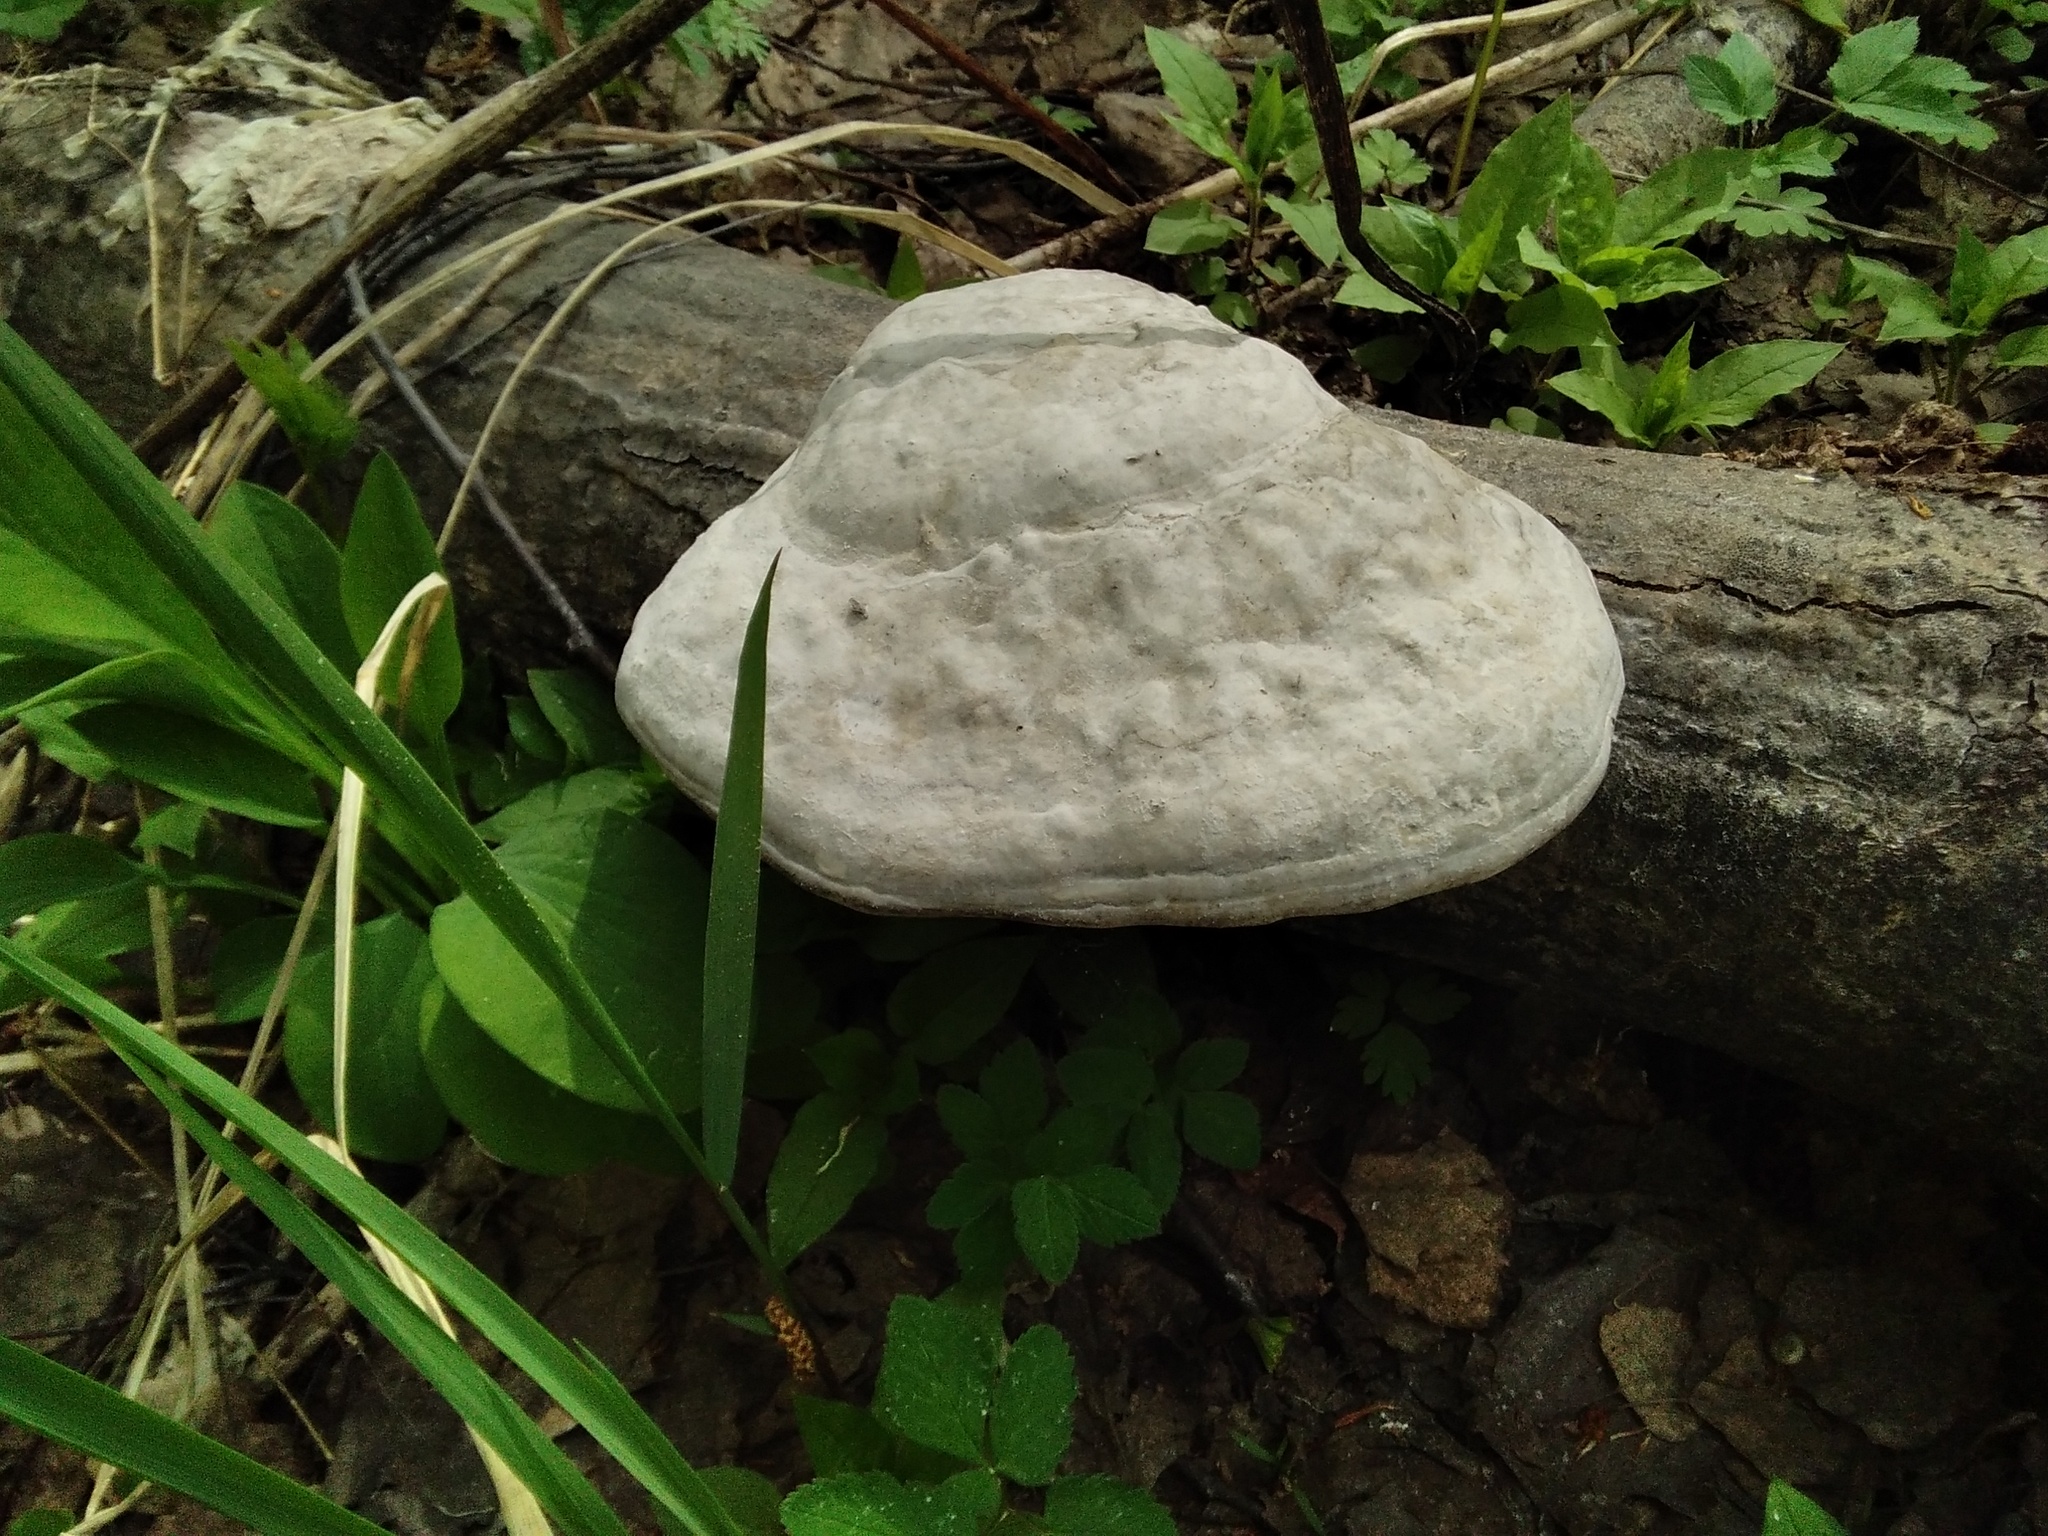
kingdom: Fungi
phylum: Basidiomycota
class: Agaricomycetes
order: Polyporales
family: Polyporaceae
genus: Fomes
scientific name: Fomes fomentarius
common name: Hoof fungus
